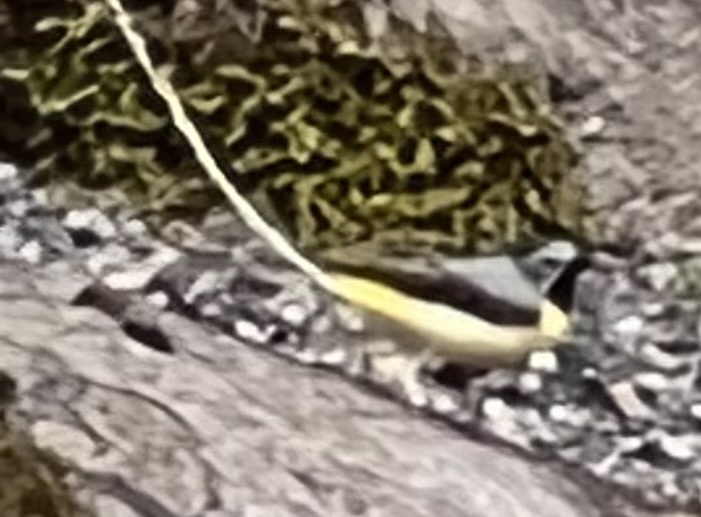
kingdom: Animalia
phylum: Chordata
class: Aves
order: Passeriformes
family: Motacillidae
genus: Motacilla
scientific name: Motacilla cinerea
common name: Grey wagtail
